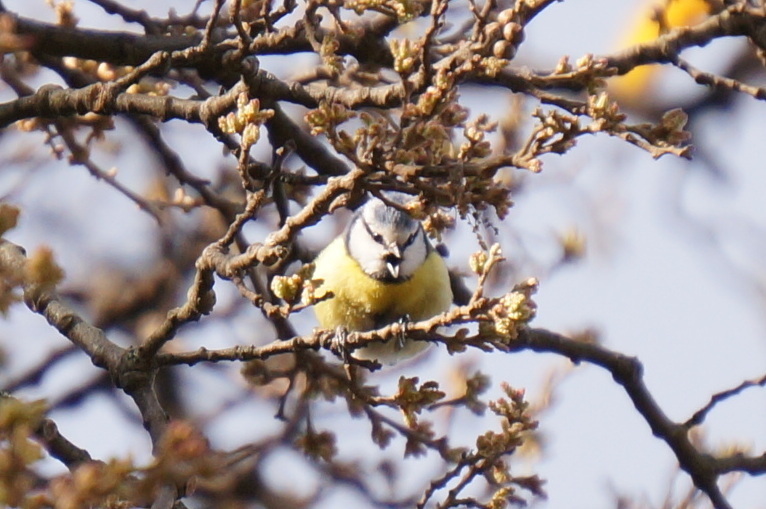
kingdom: Animalia
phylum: Chordata
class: Aves
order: Passeriformes
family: Paridae
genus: Cyanistes
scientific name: Cyanistes caeruleus
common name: Eurasian blue tit
